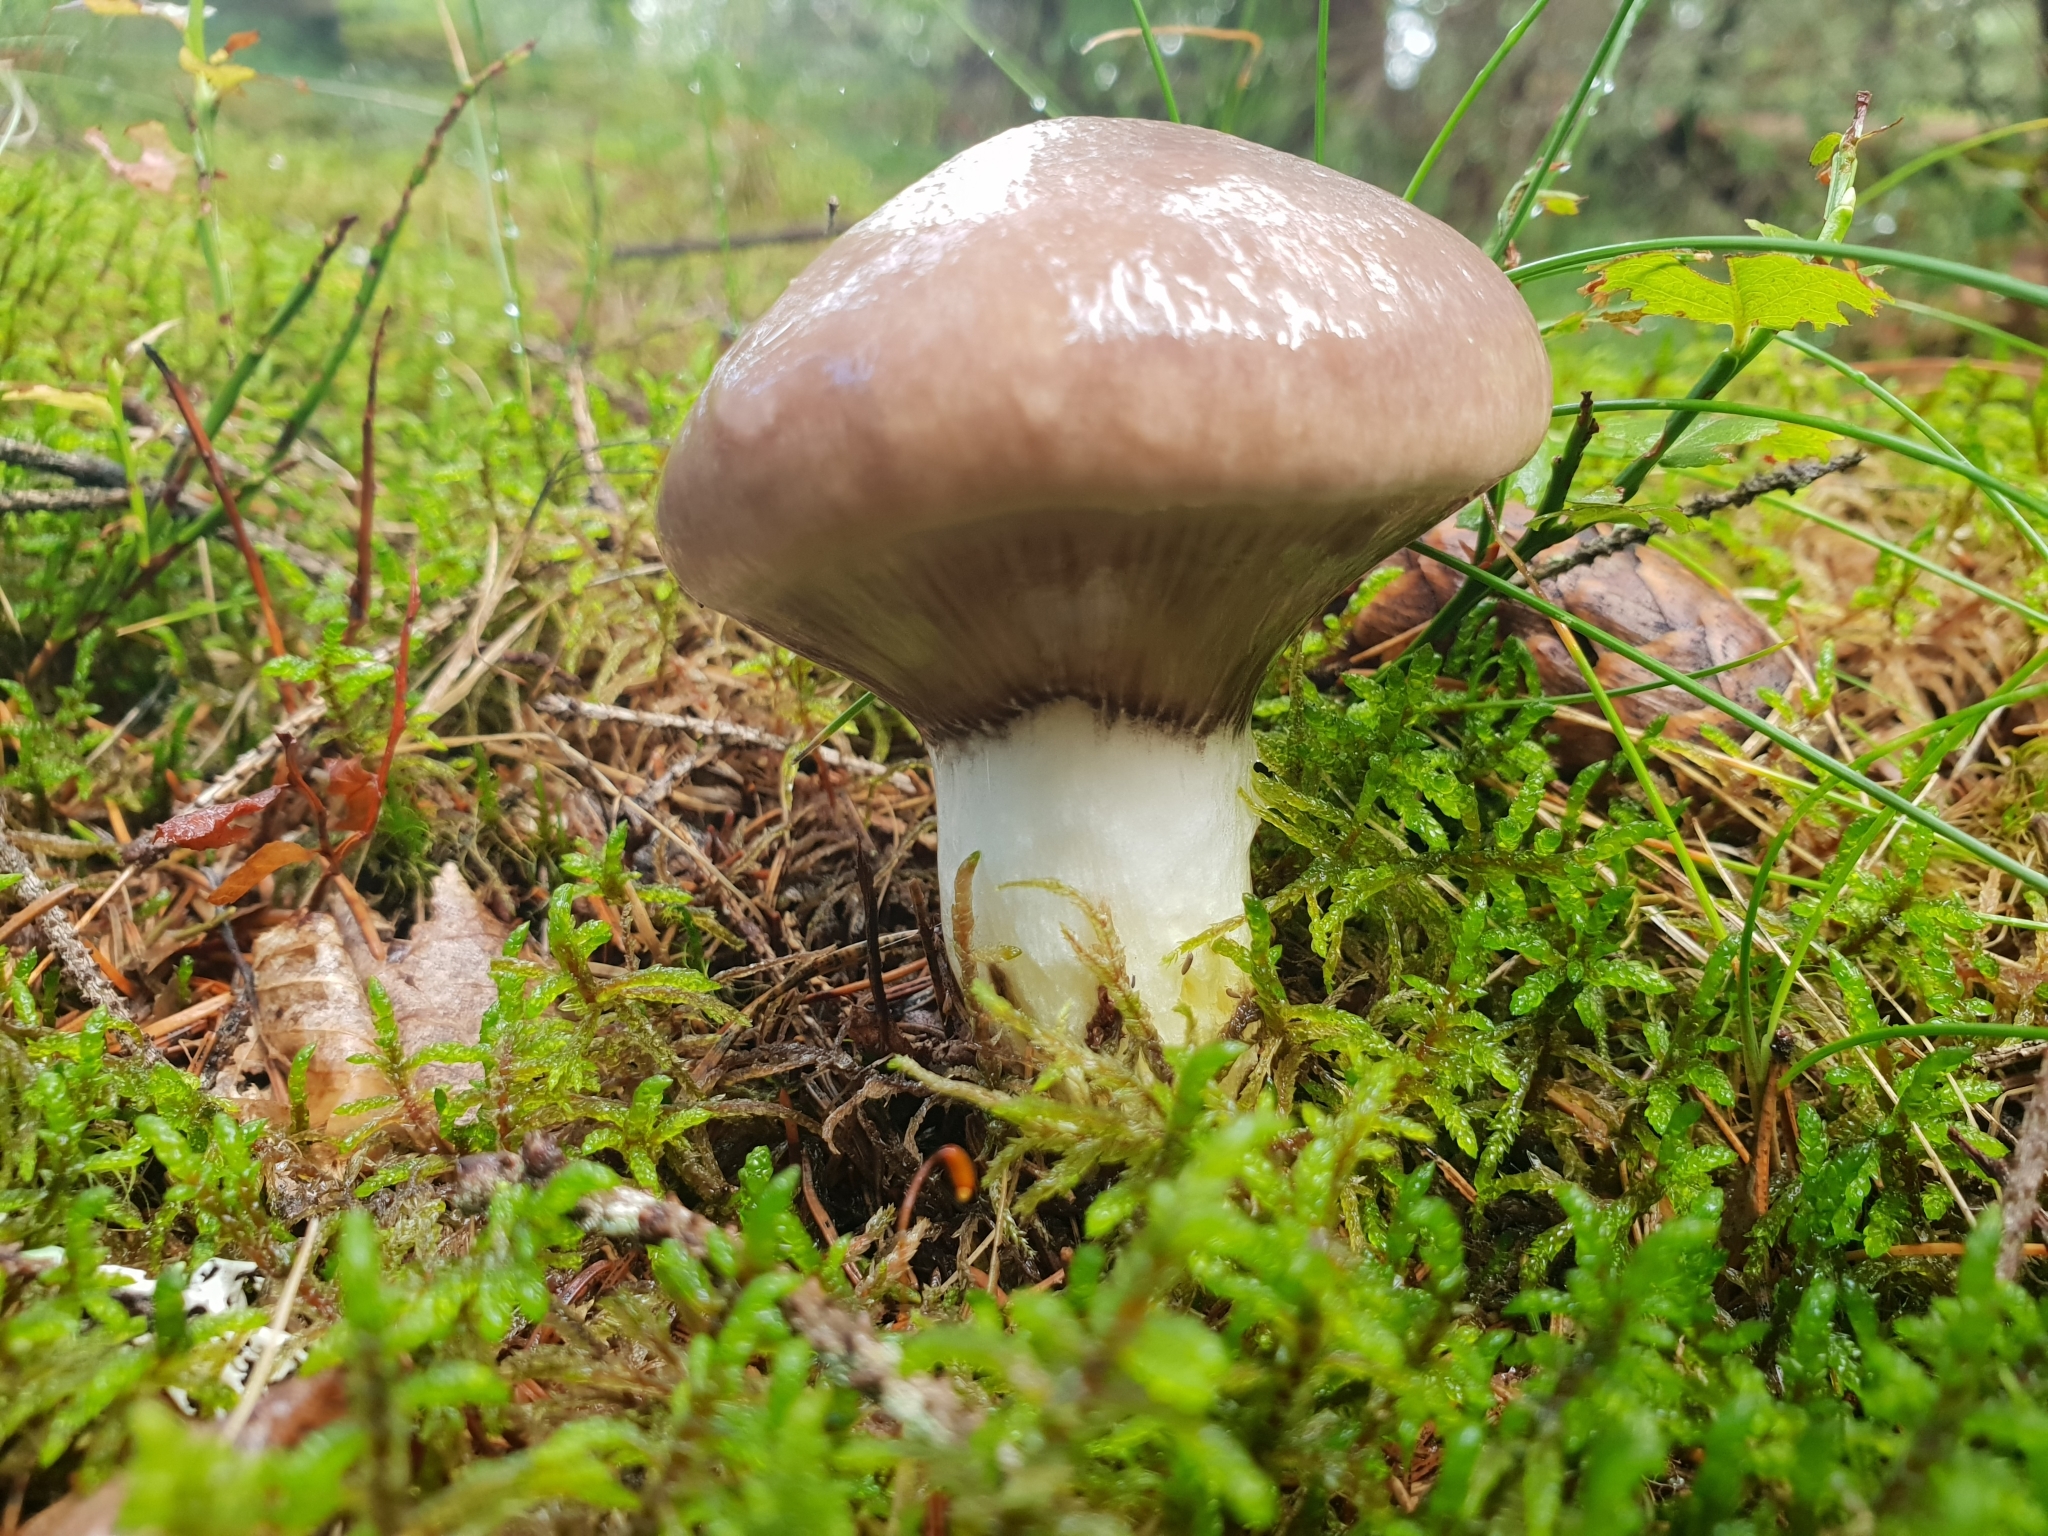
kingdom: Fungi
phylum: Basidiomycota
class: Agaricomycetes
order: Boletales
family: Gomphidiaceae
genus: Gomphidius
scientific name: Gomphidius glutinosus
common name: Slimy spike
